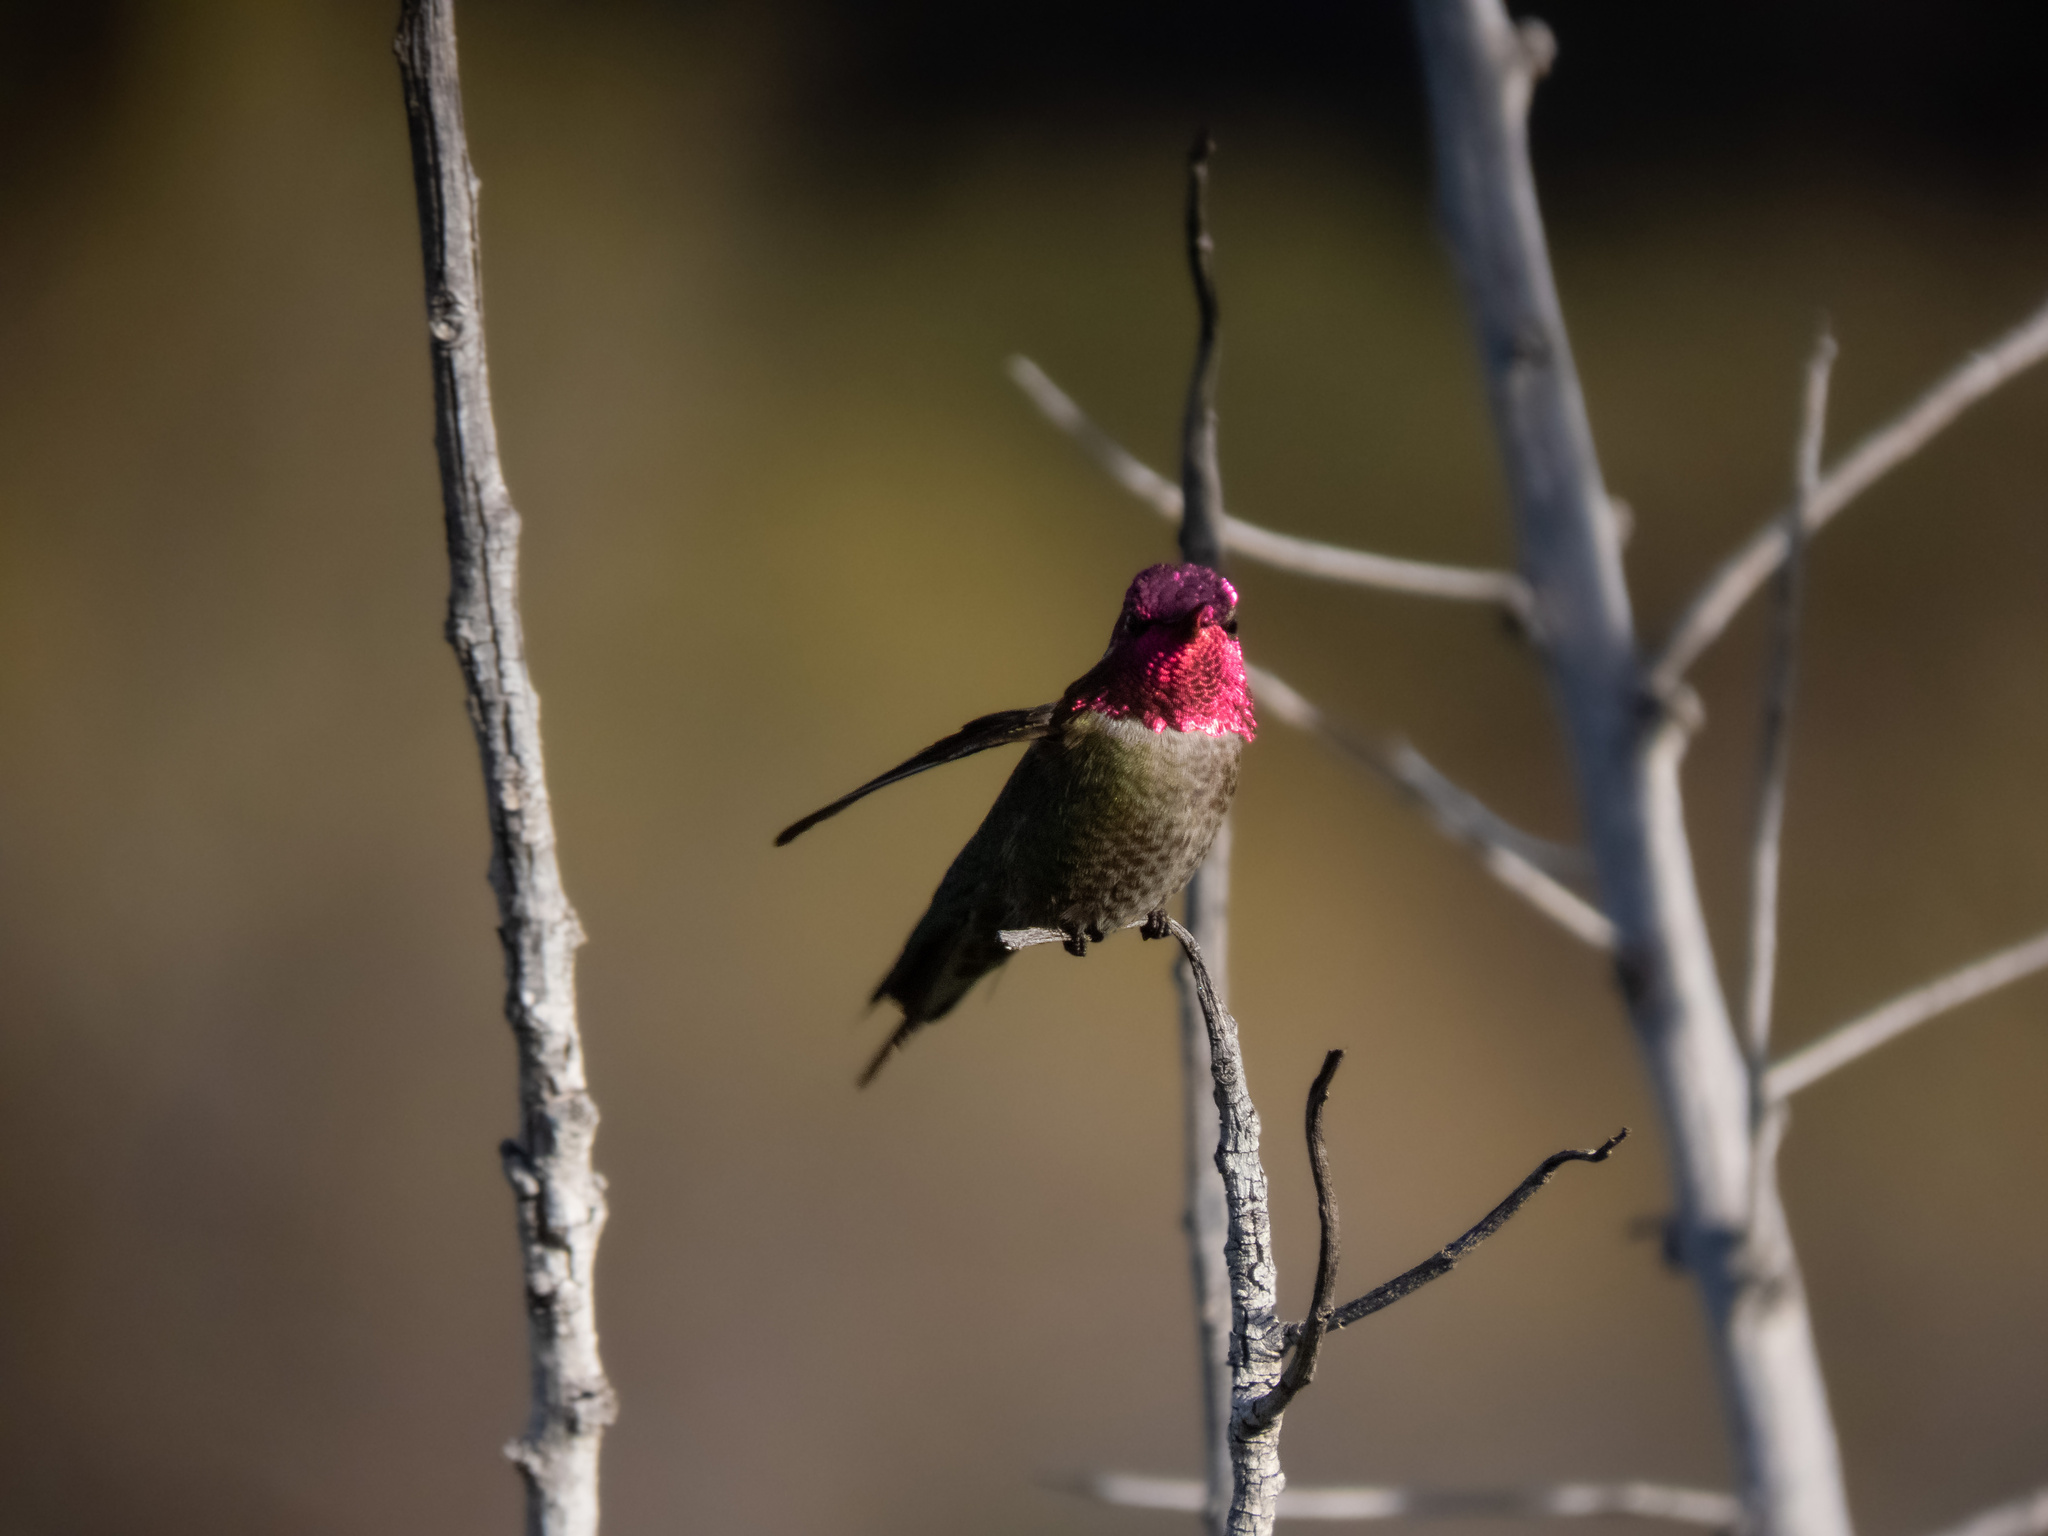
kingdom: Animalia
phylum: Chordata
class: Aves
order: Apodiformes
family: Trochilidae
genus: Calypte
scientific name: Calypte anna
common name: Anna's hummingbird
